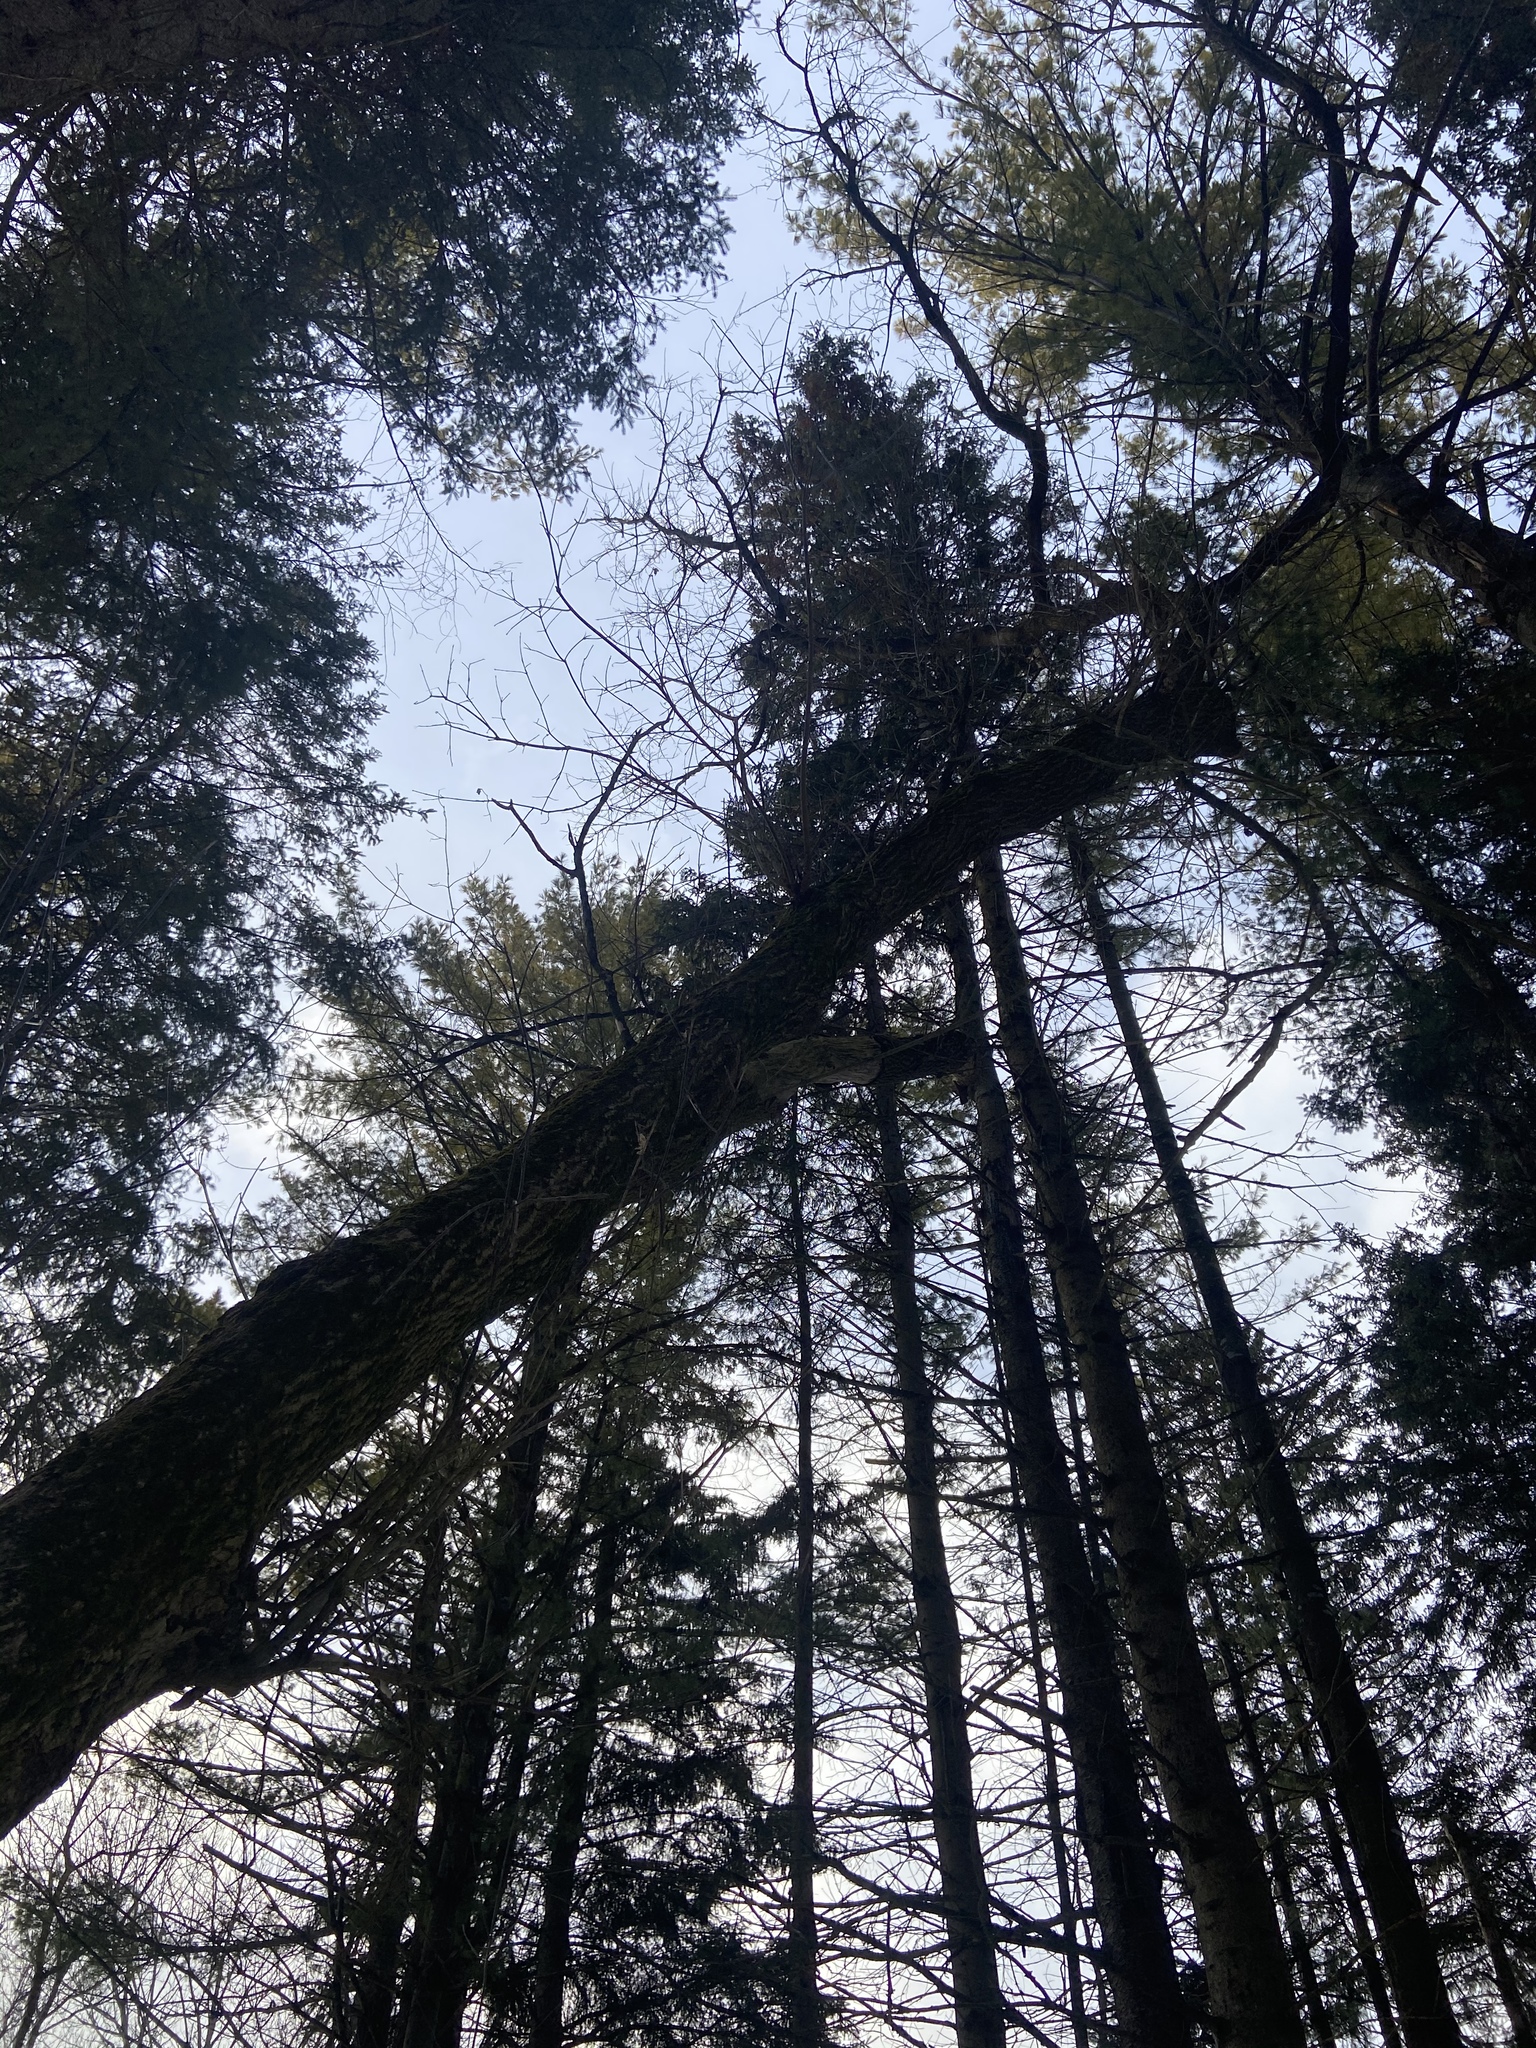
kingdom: Plantae
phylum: Tracheophyta
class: Magnoliopsida
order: Sapindales
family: Sapindaceae
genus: Acer
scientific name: Acer negundo
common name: Ashleaf maple
